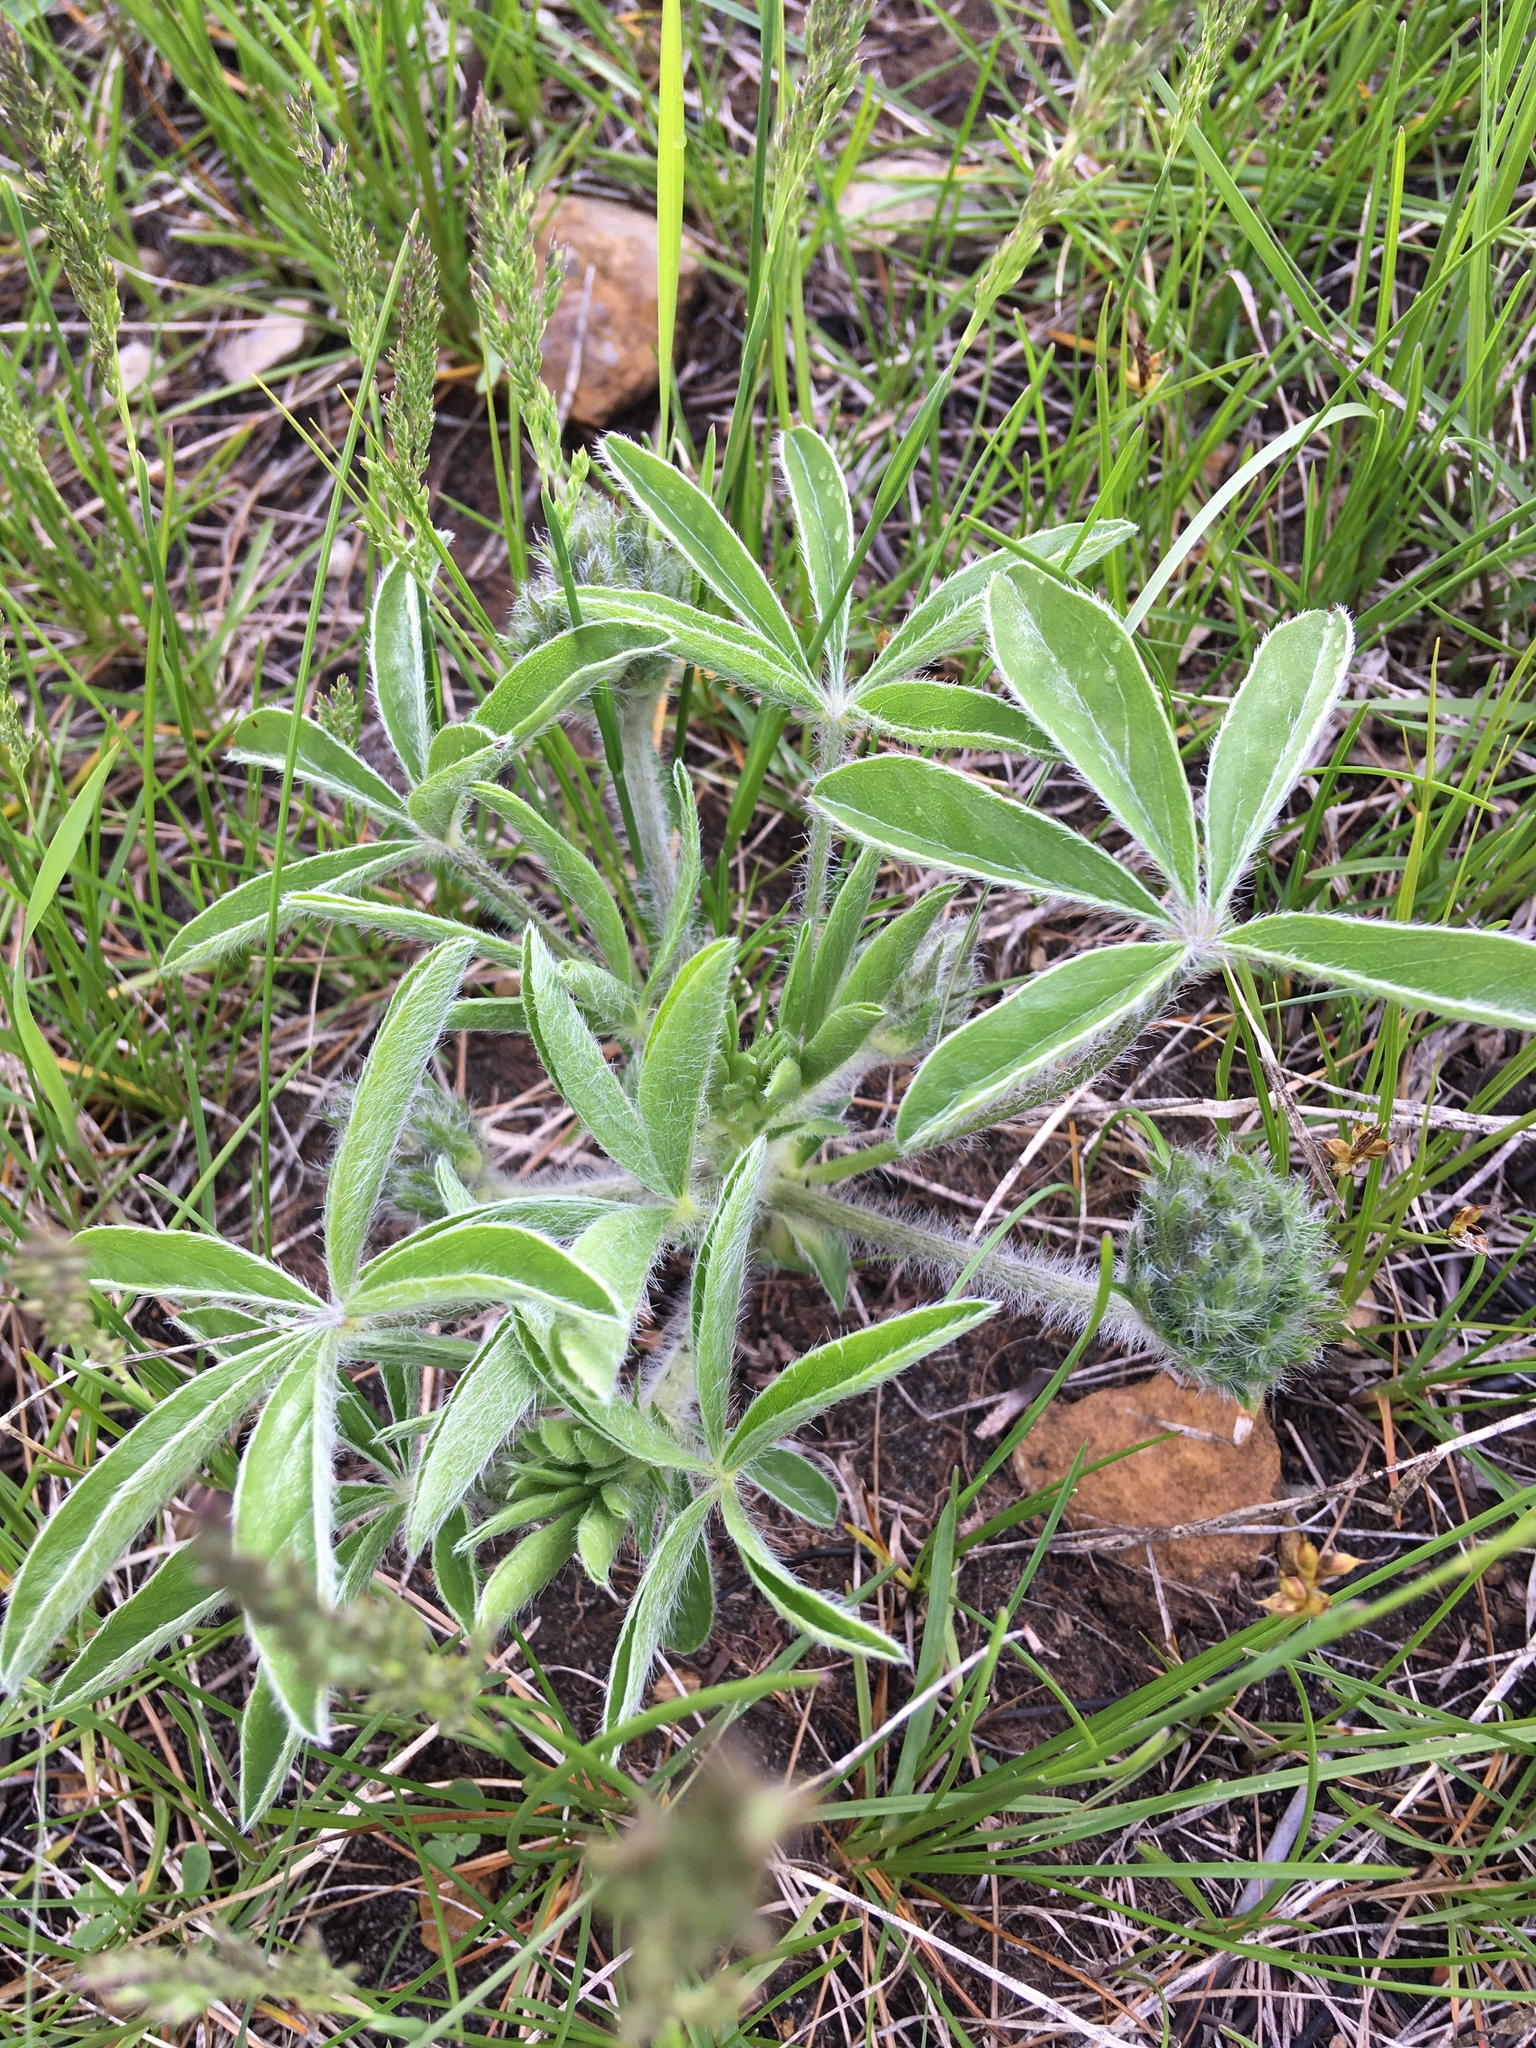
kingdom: Plantae
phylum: Tracheophyta
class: Magnoliopsida
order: Fabales
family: Fabaceae
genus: Pediomelum
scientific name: Pediomelum esculentum
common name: Indian-turnip
